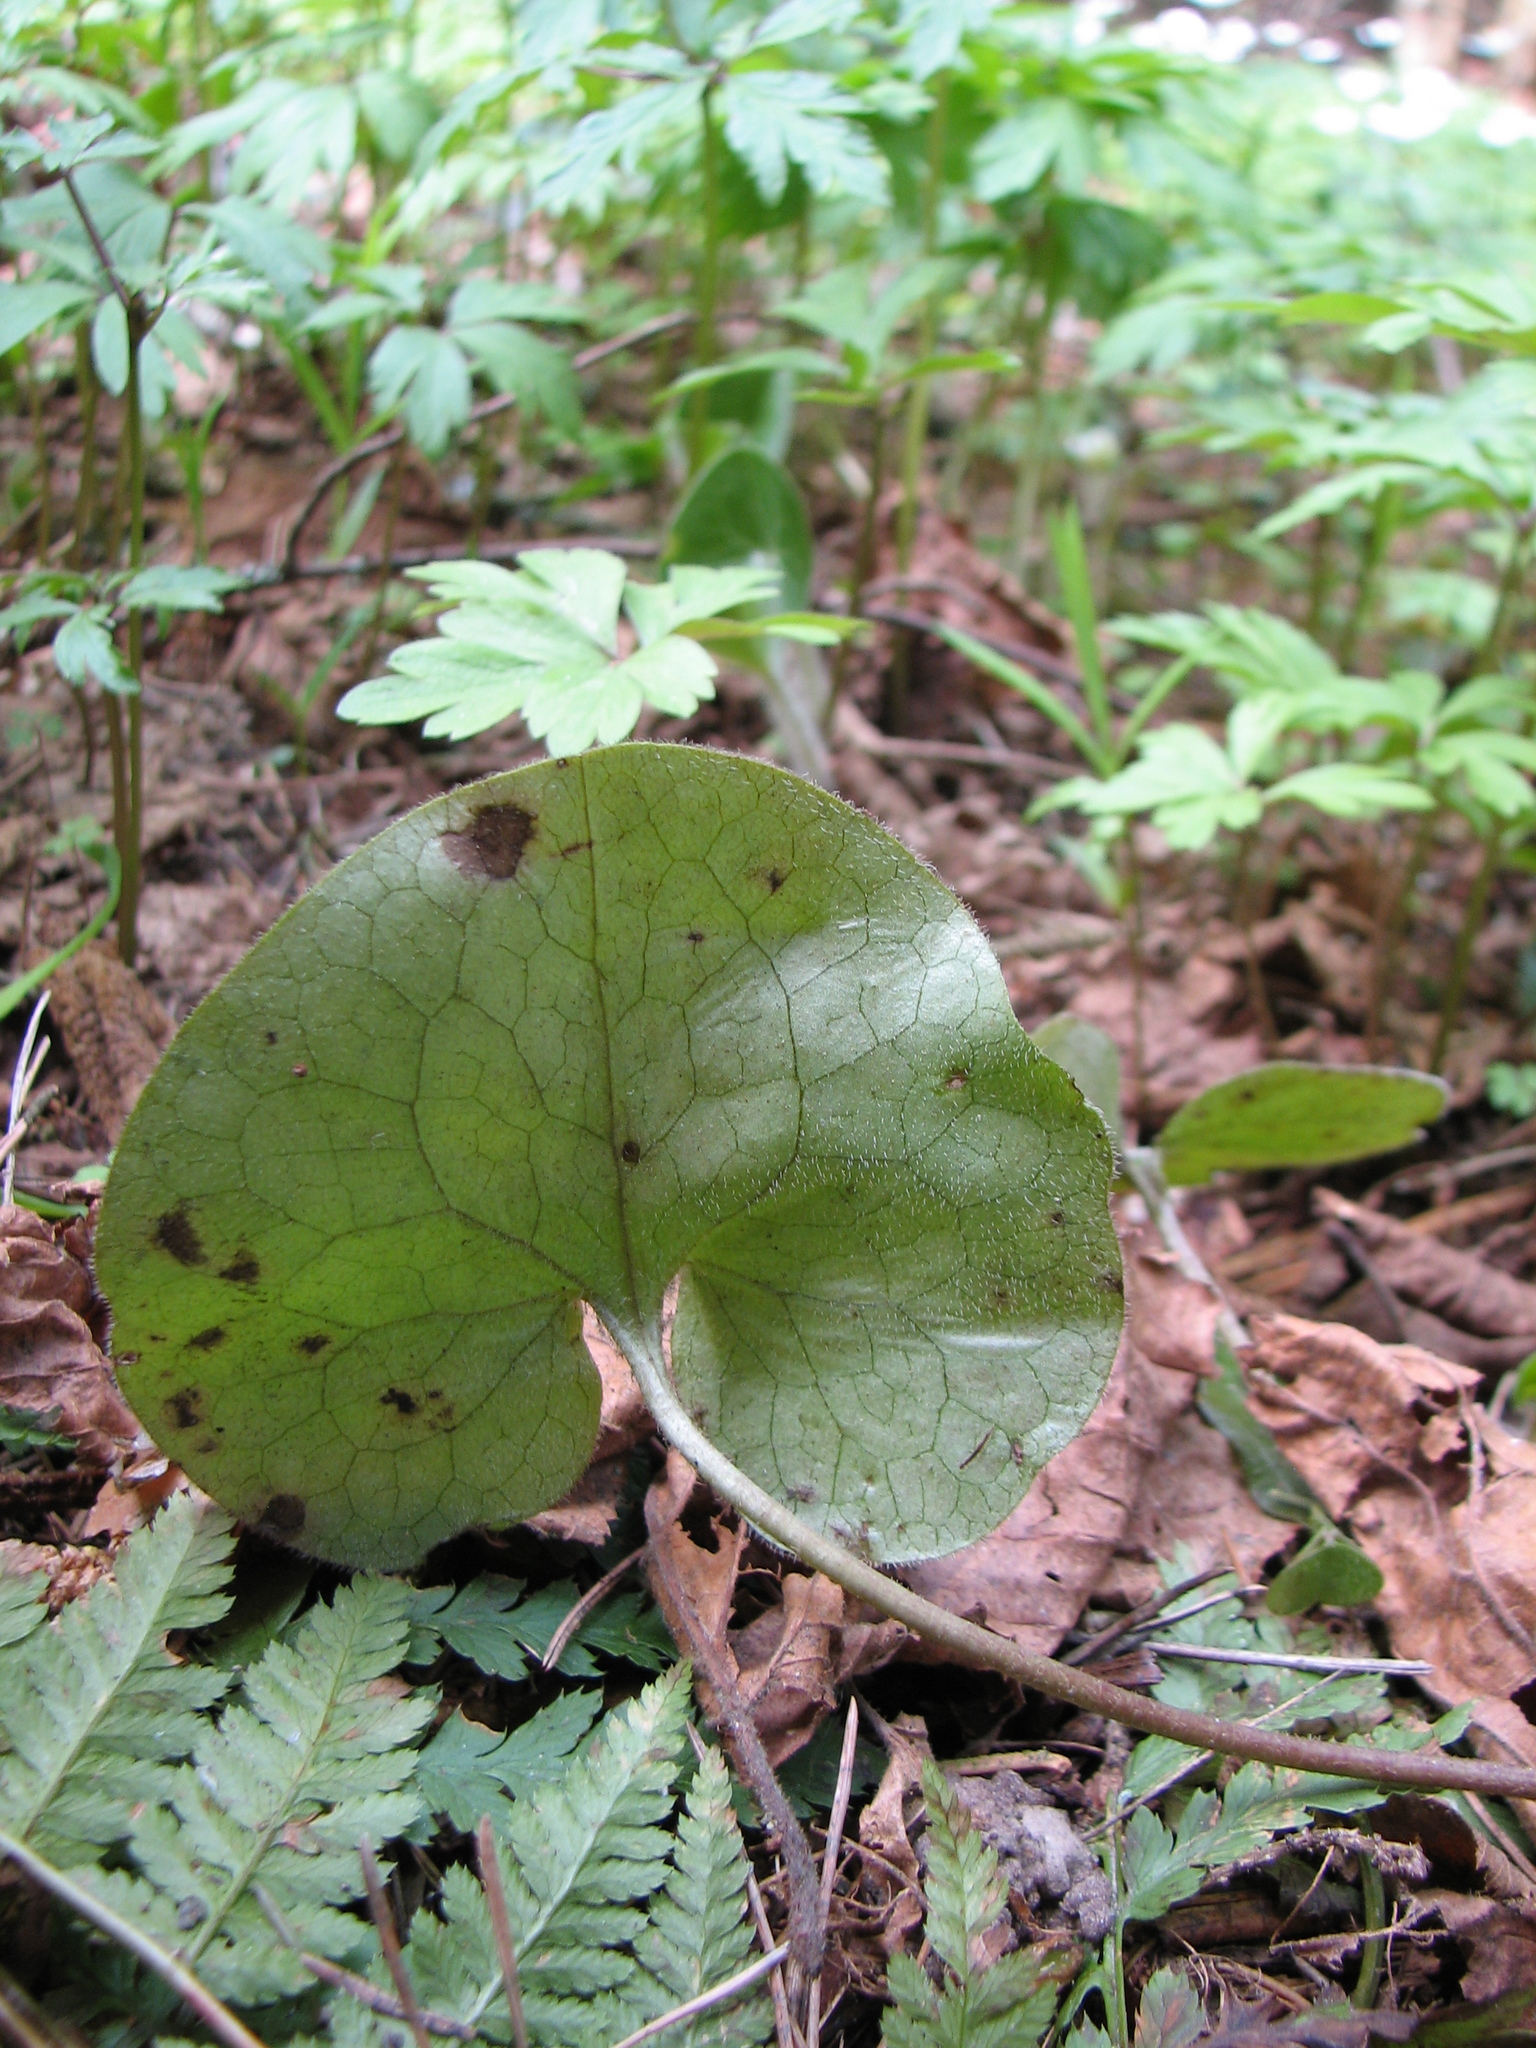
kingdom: Plantae
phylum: Tracheophyta
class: Magnoliopsida
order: Piperales
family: Aristolochiaceae
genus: Asarum
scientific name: Asarum europaeum
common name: Asarabacca
